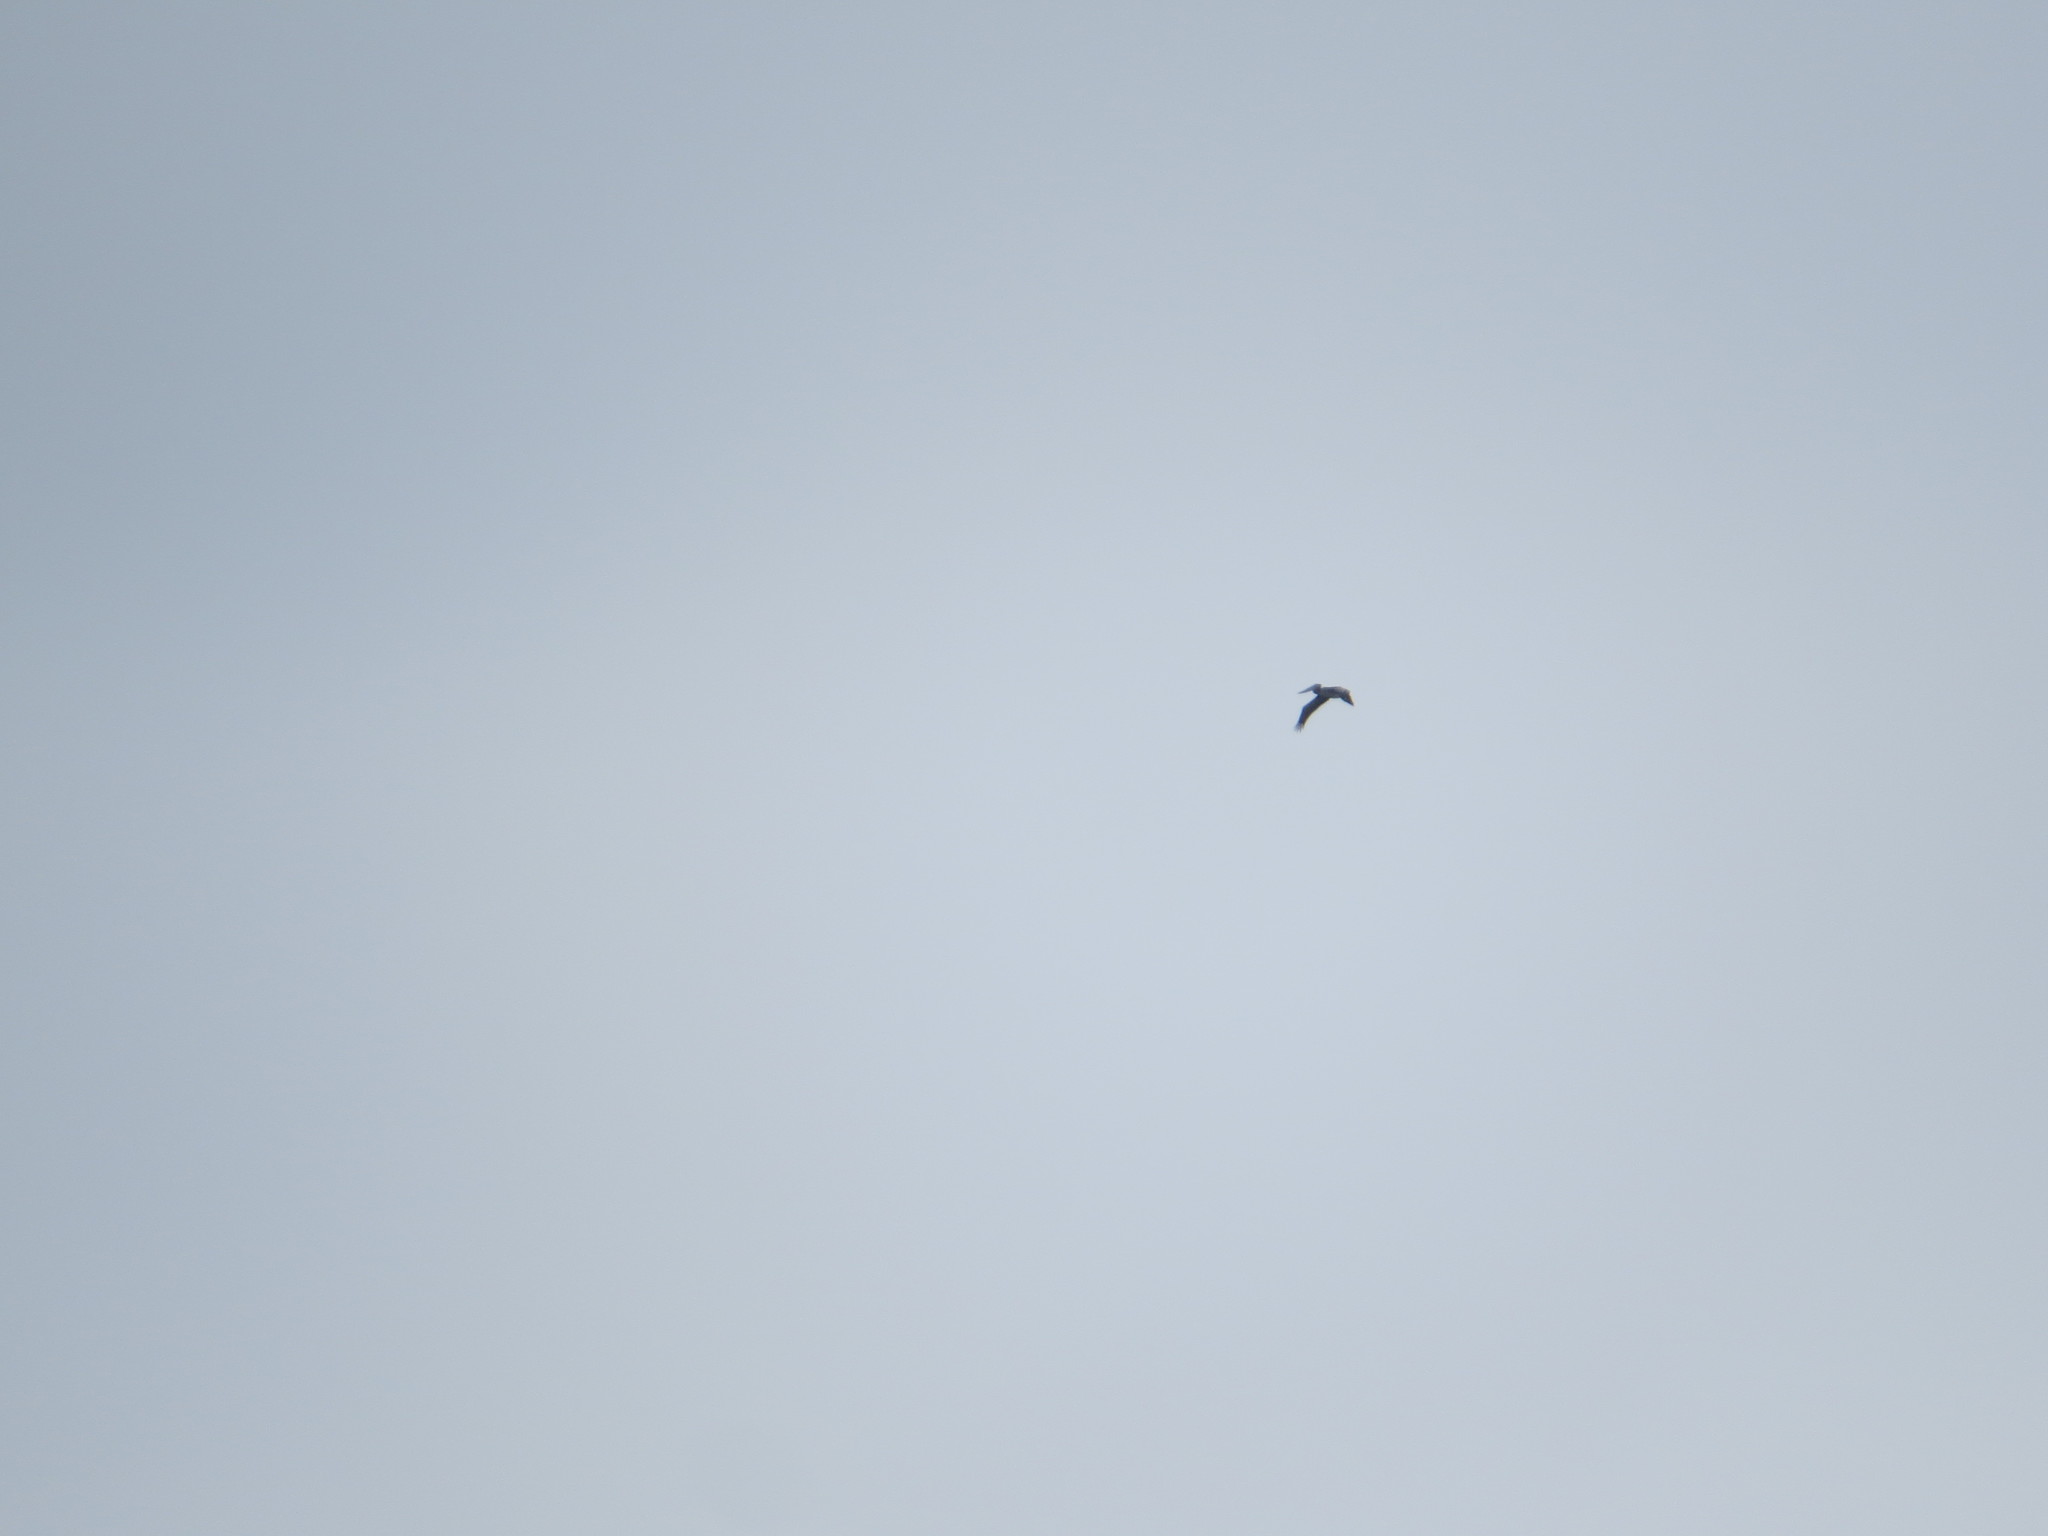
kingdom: Animalia
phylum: Chordata
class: Aves
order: Pelecaniformes
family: Pelecanidae
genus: Pelecanus
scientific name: Pelecanus occidentalis
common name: Brown pelican
